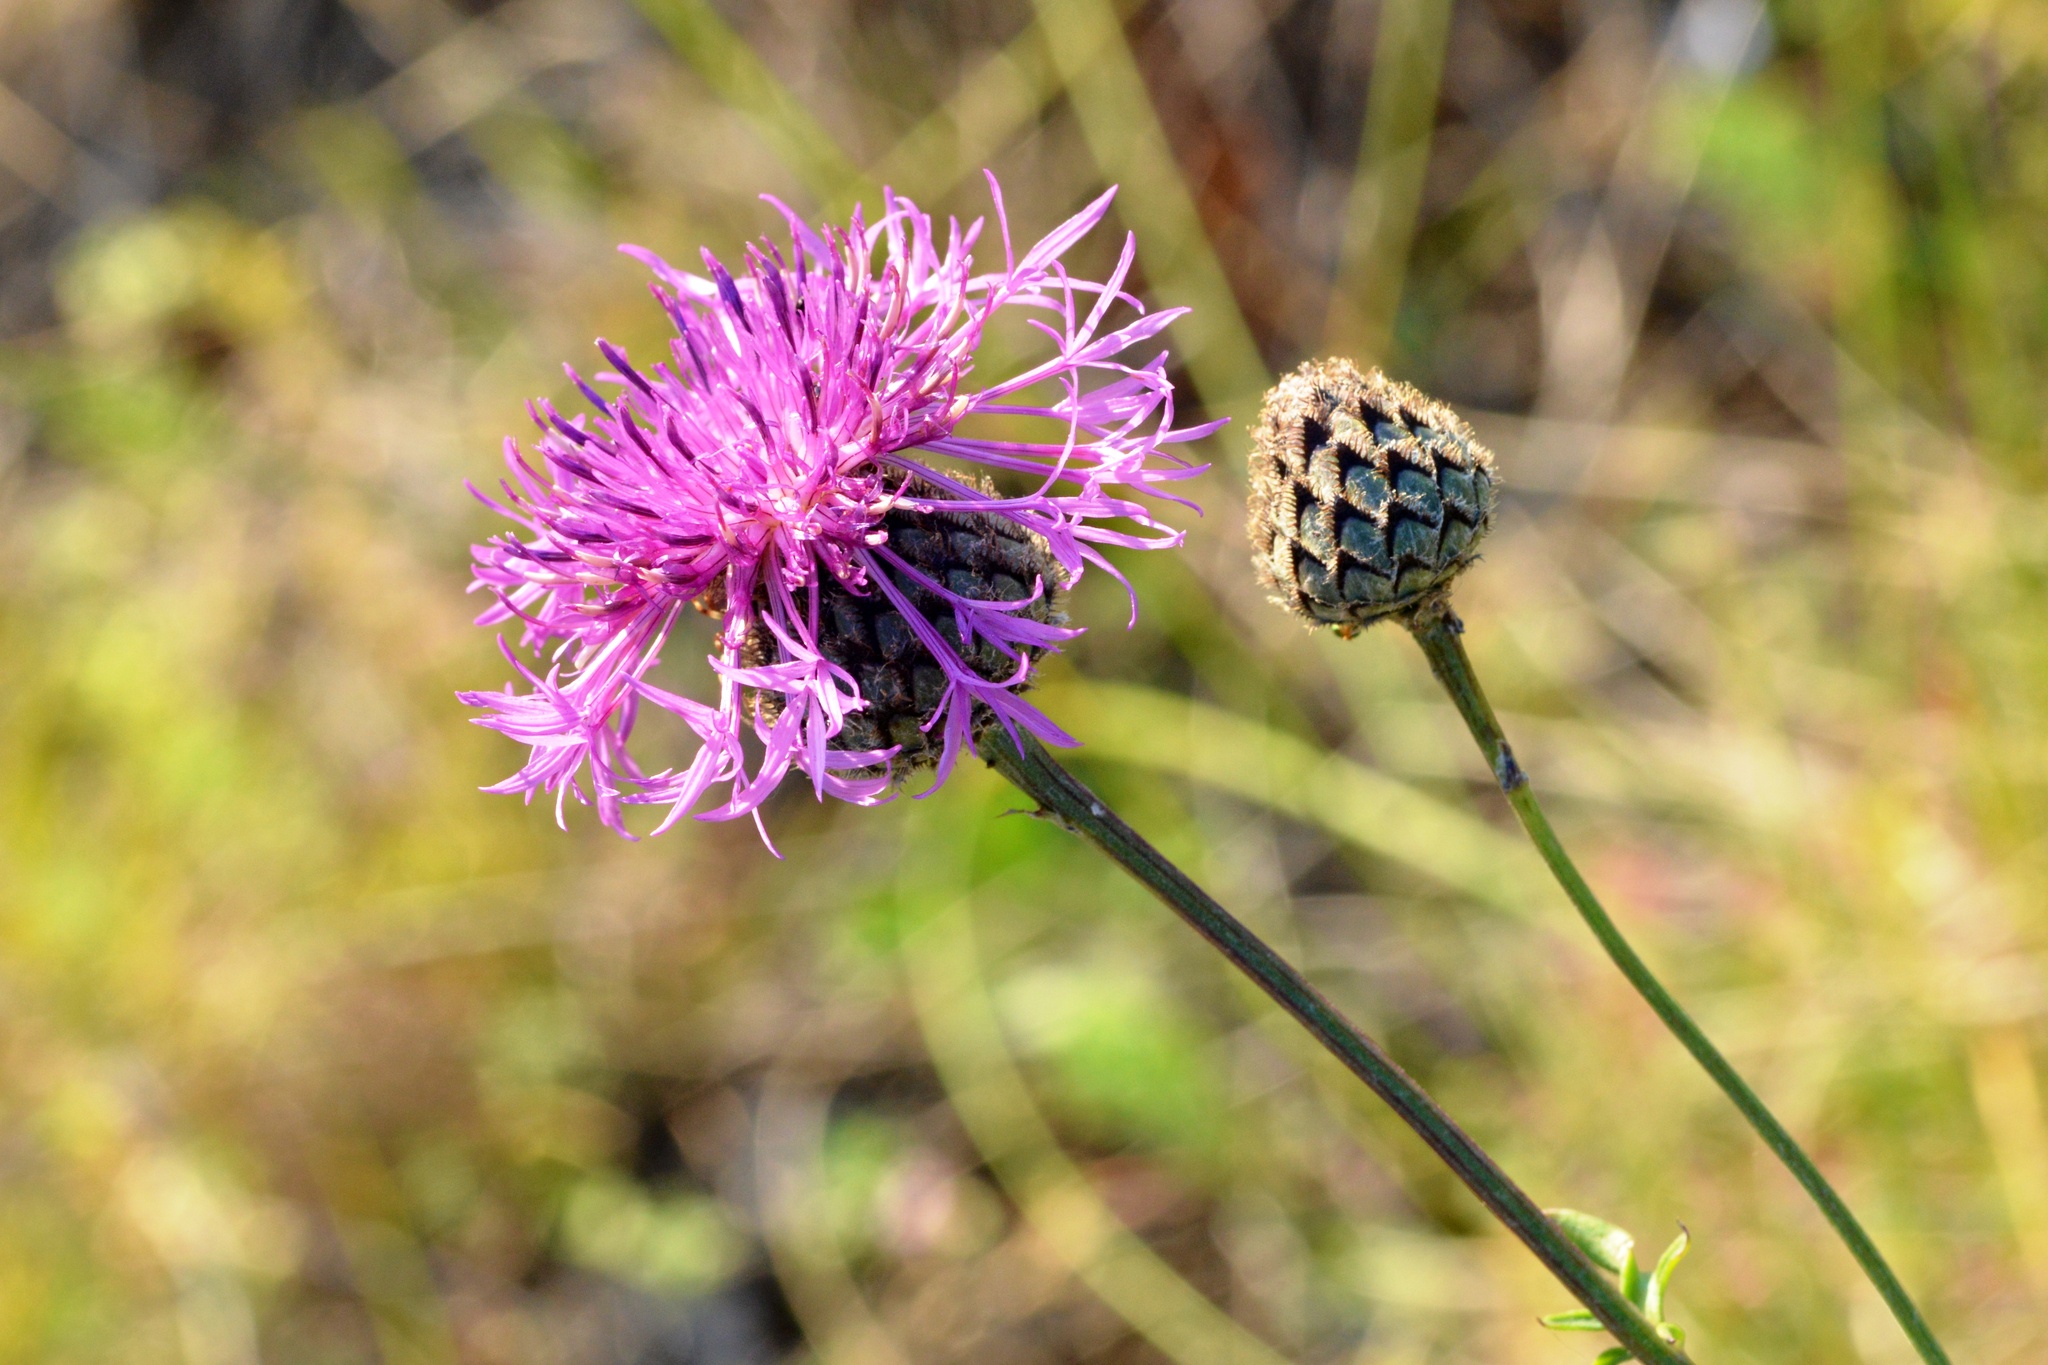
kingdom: Plantae
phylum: Tracheophyta
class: Magnoliopsida
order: Asterales
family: Asteraceae
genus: Centaurea
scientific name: Centaurea scabiosa
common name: Greater knapweed
